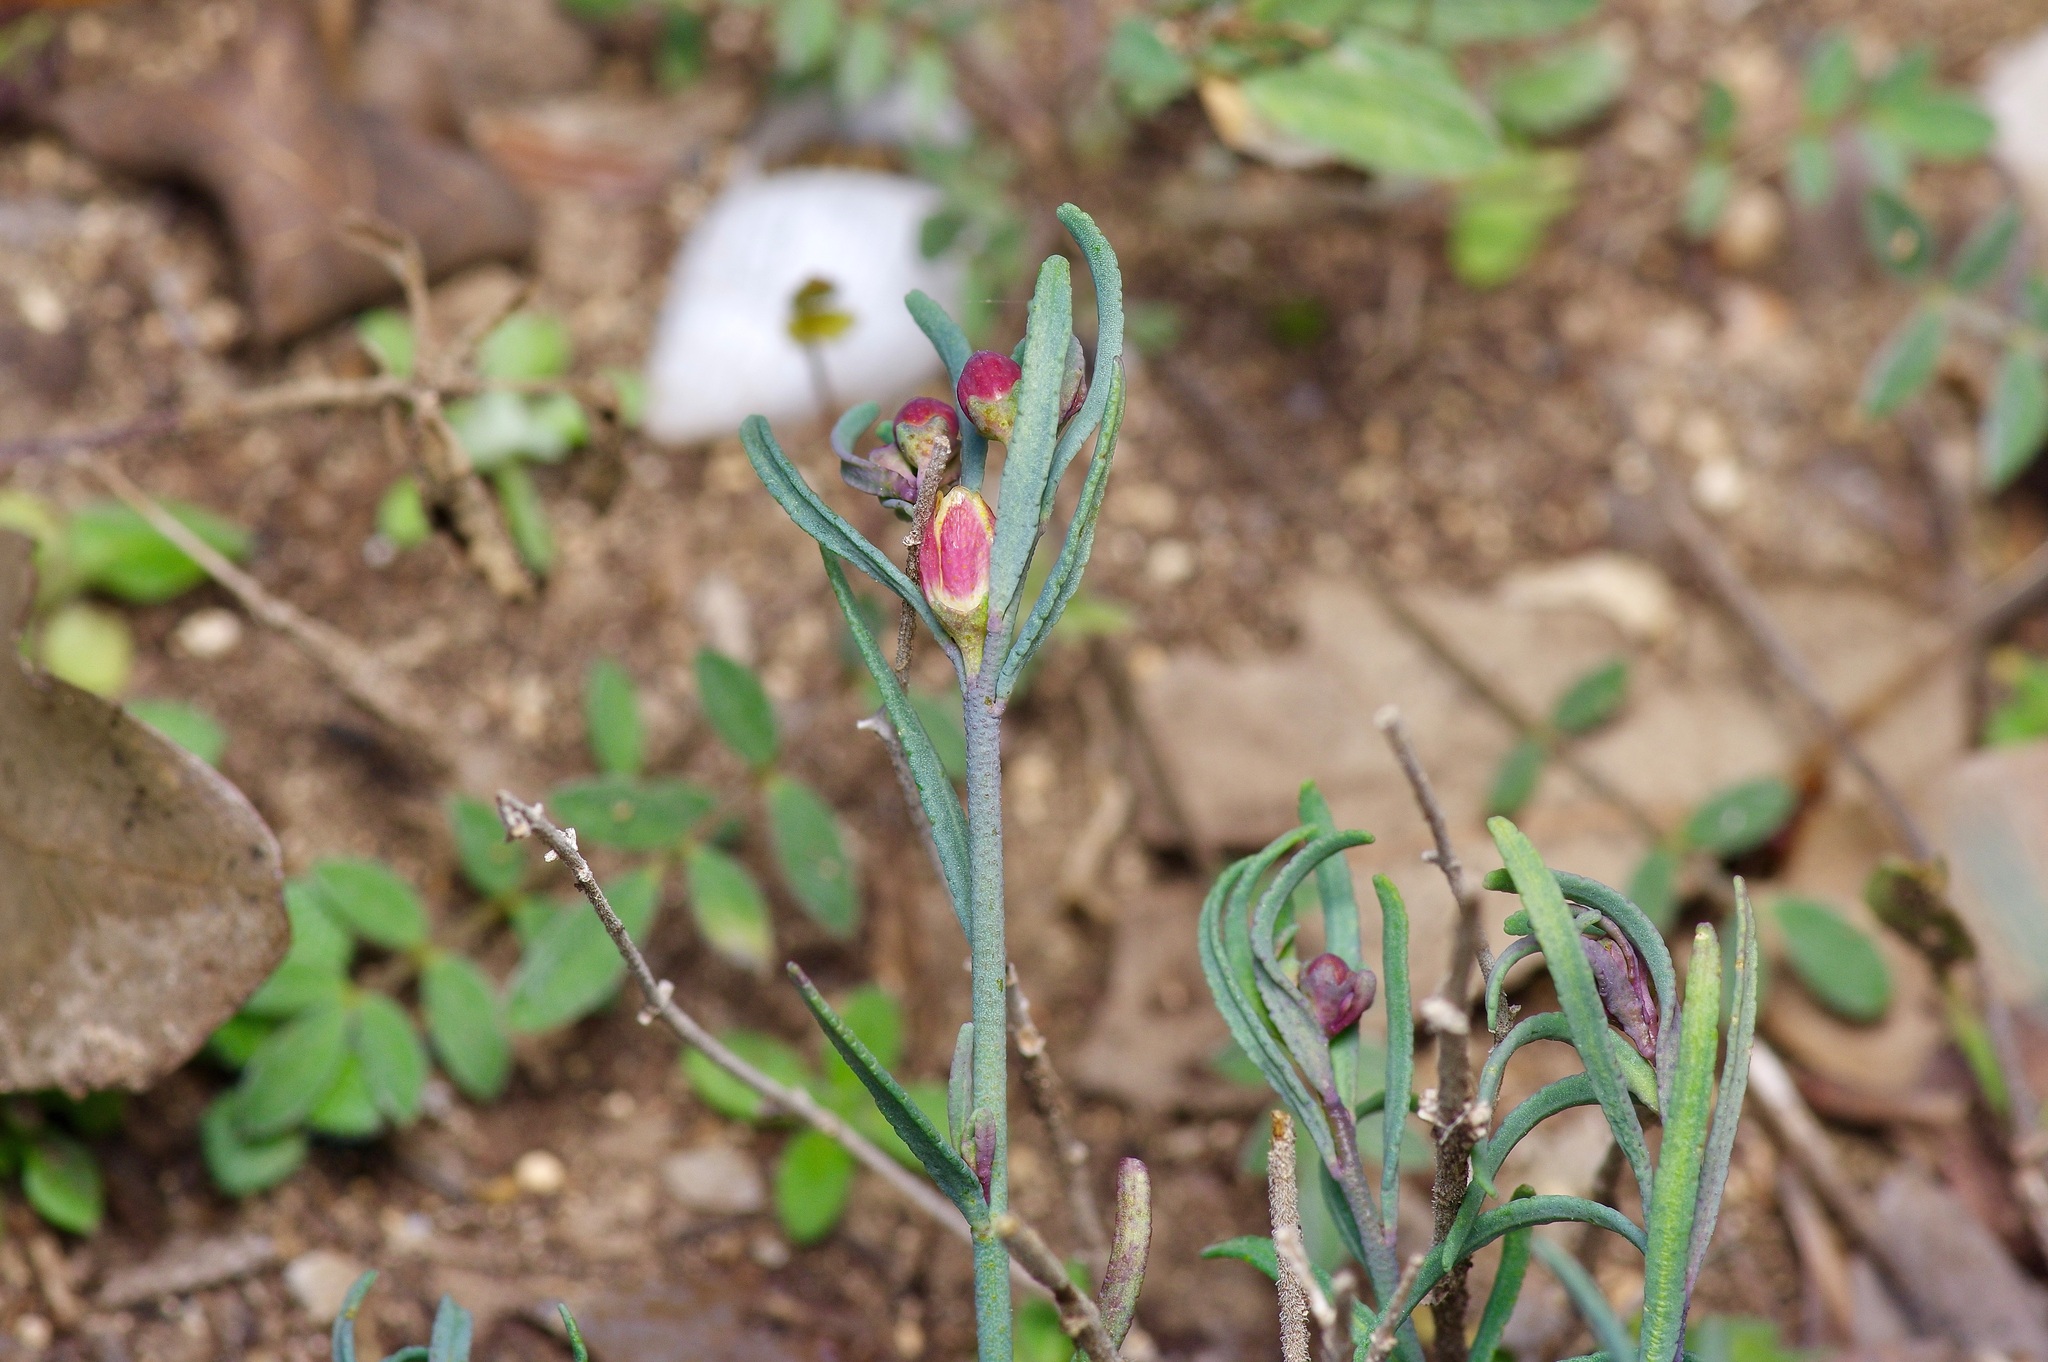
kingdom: Plantae
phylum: Tracheophyta
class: Magnoliopsida
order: Sapindales
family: Rutaceae
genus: Thamnosma
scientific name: Thamnosma texana
